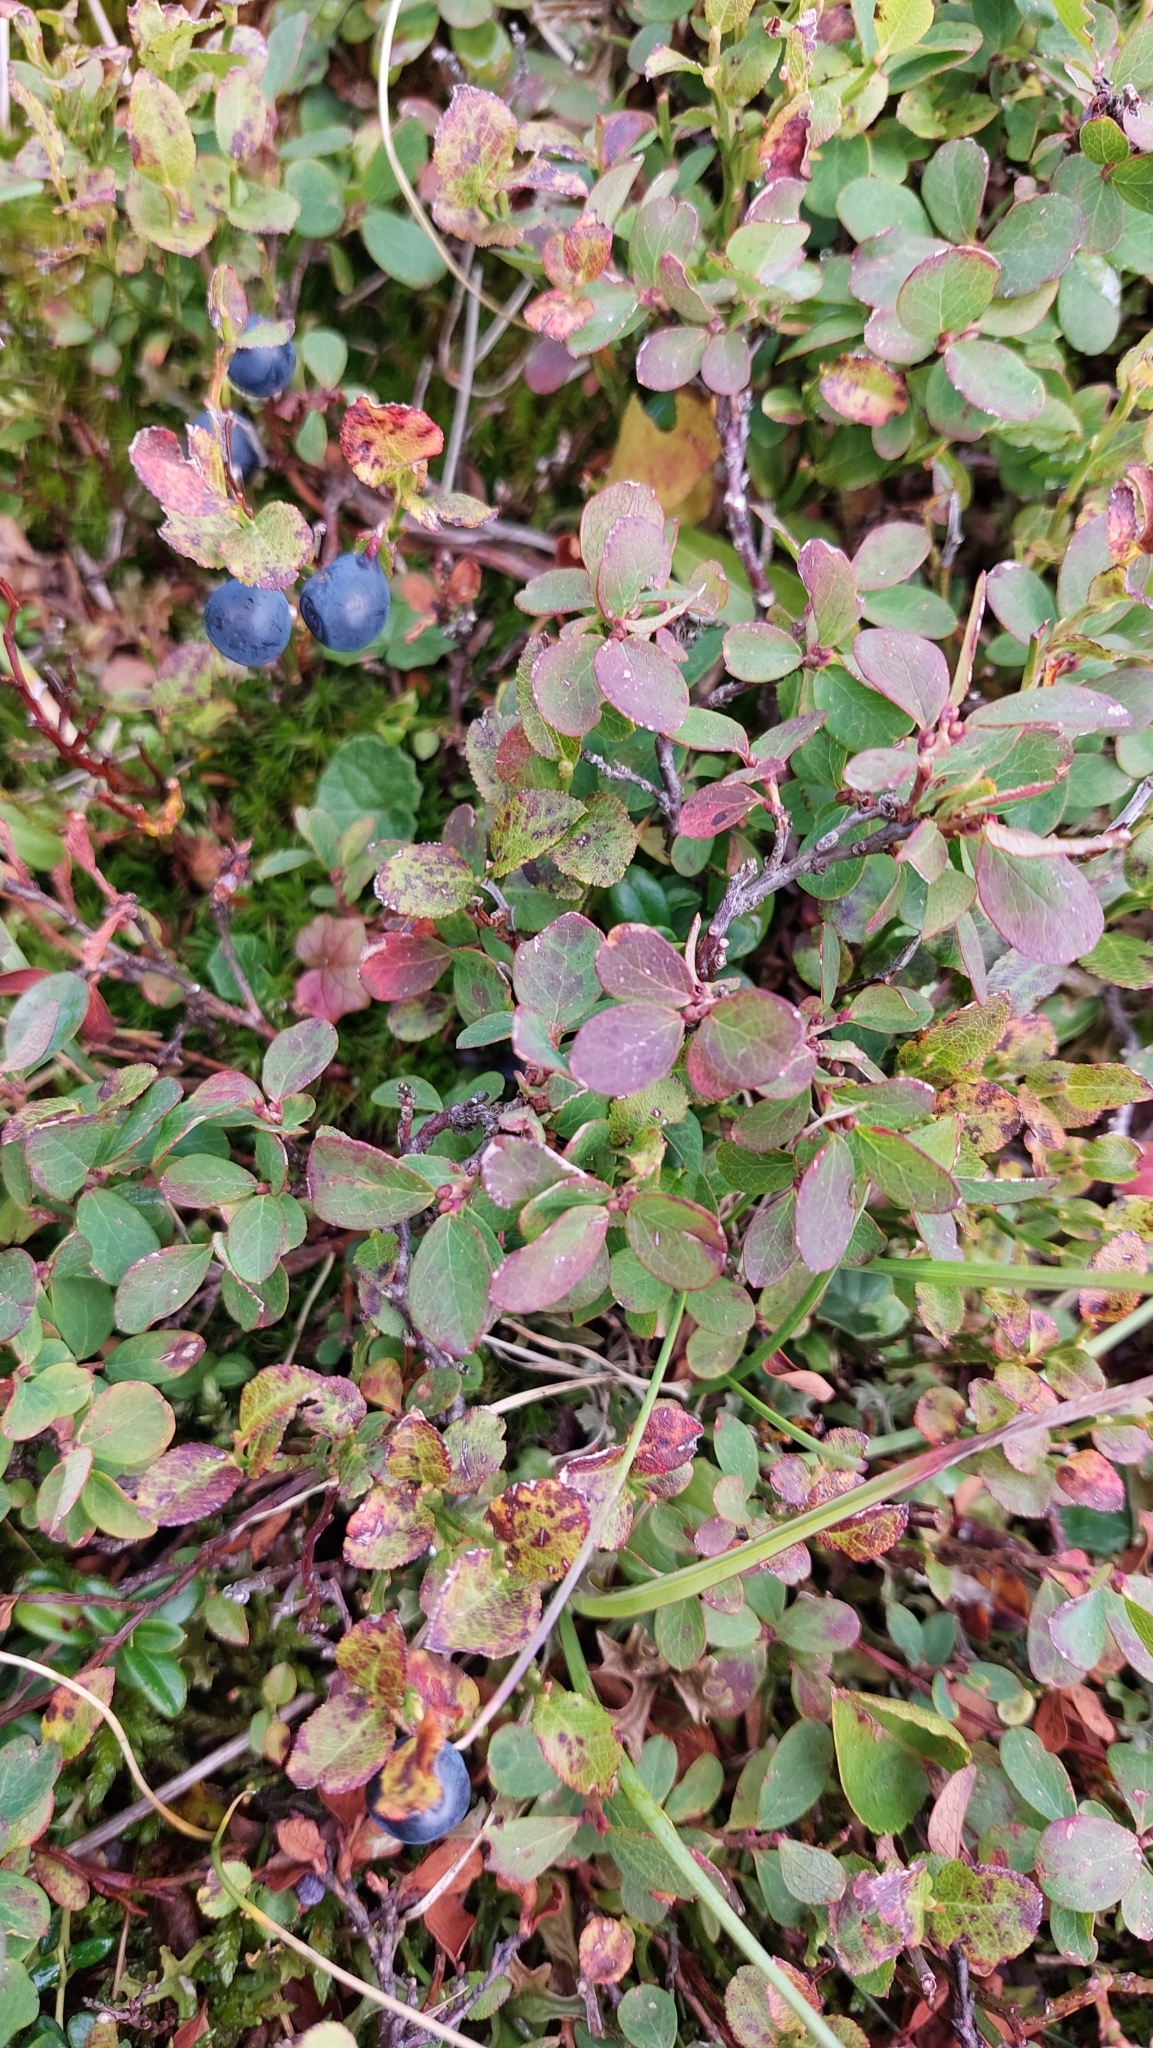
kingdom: Plantae
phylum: Tracheophyta
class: Magnoliopsida
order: Ericales
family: Ericaceae
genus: Vaccinium
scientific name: Vaccinium myrtillus
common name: Bilberry
